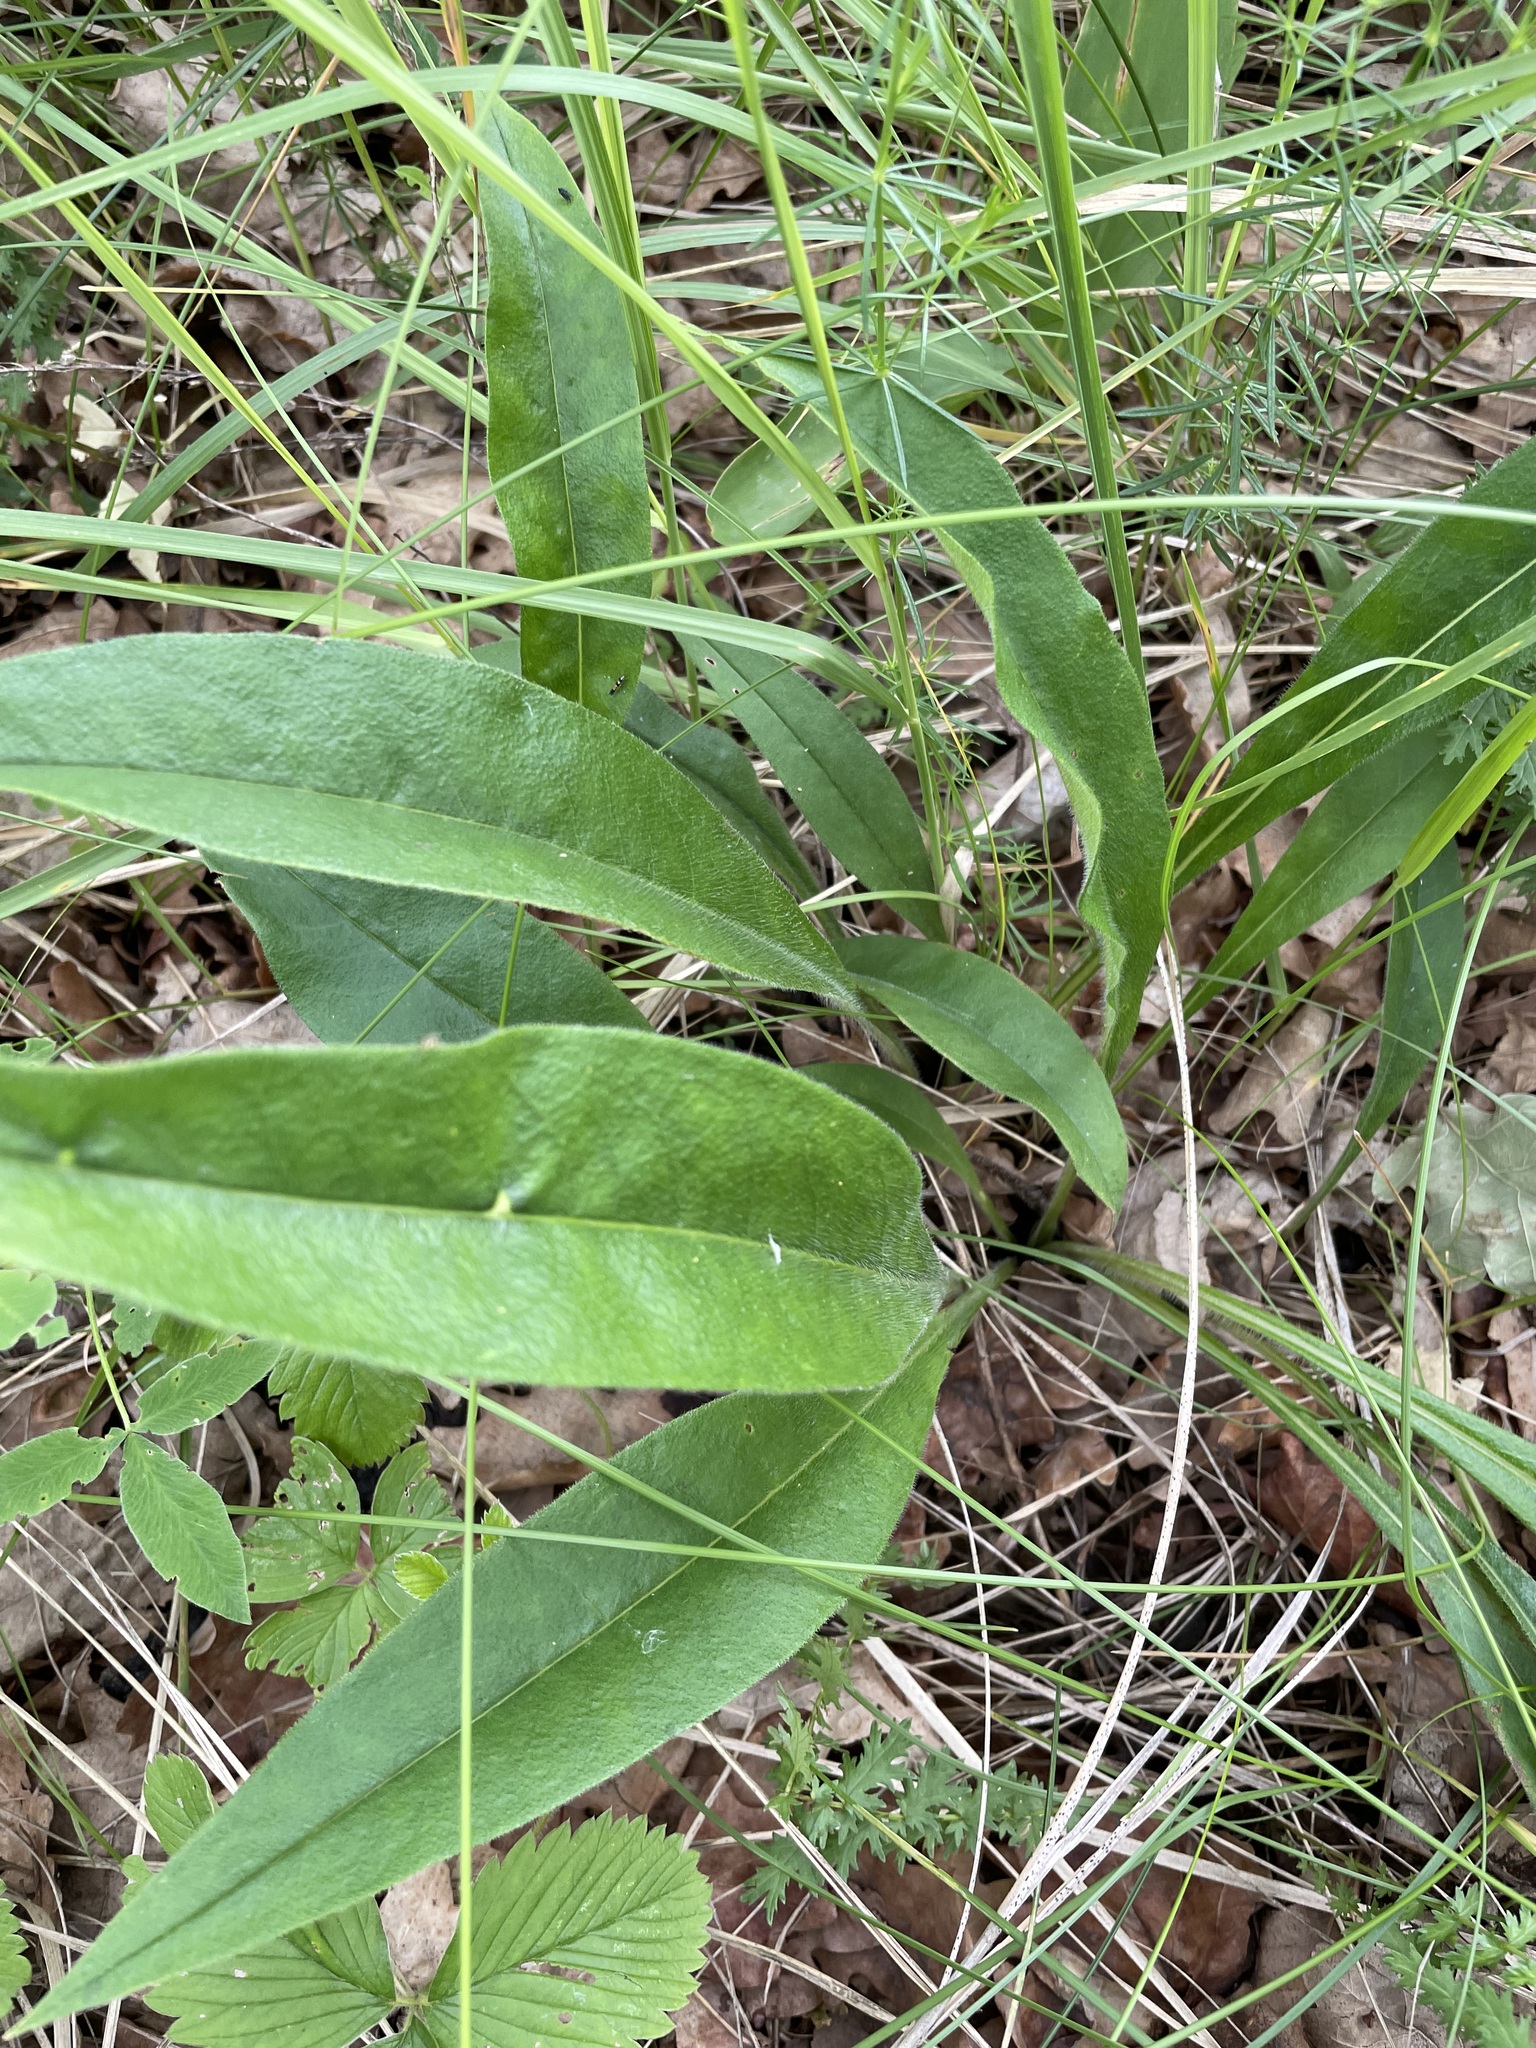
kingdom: Plantae
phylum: Tracheophyta
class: Magnoliopsida
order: Boraginales
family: Boraginaceae
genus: Pulmonaria
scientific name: Pulmonaria angustifolia
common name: Blue cowslip
